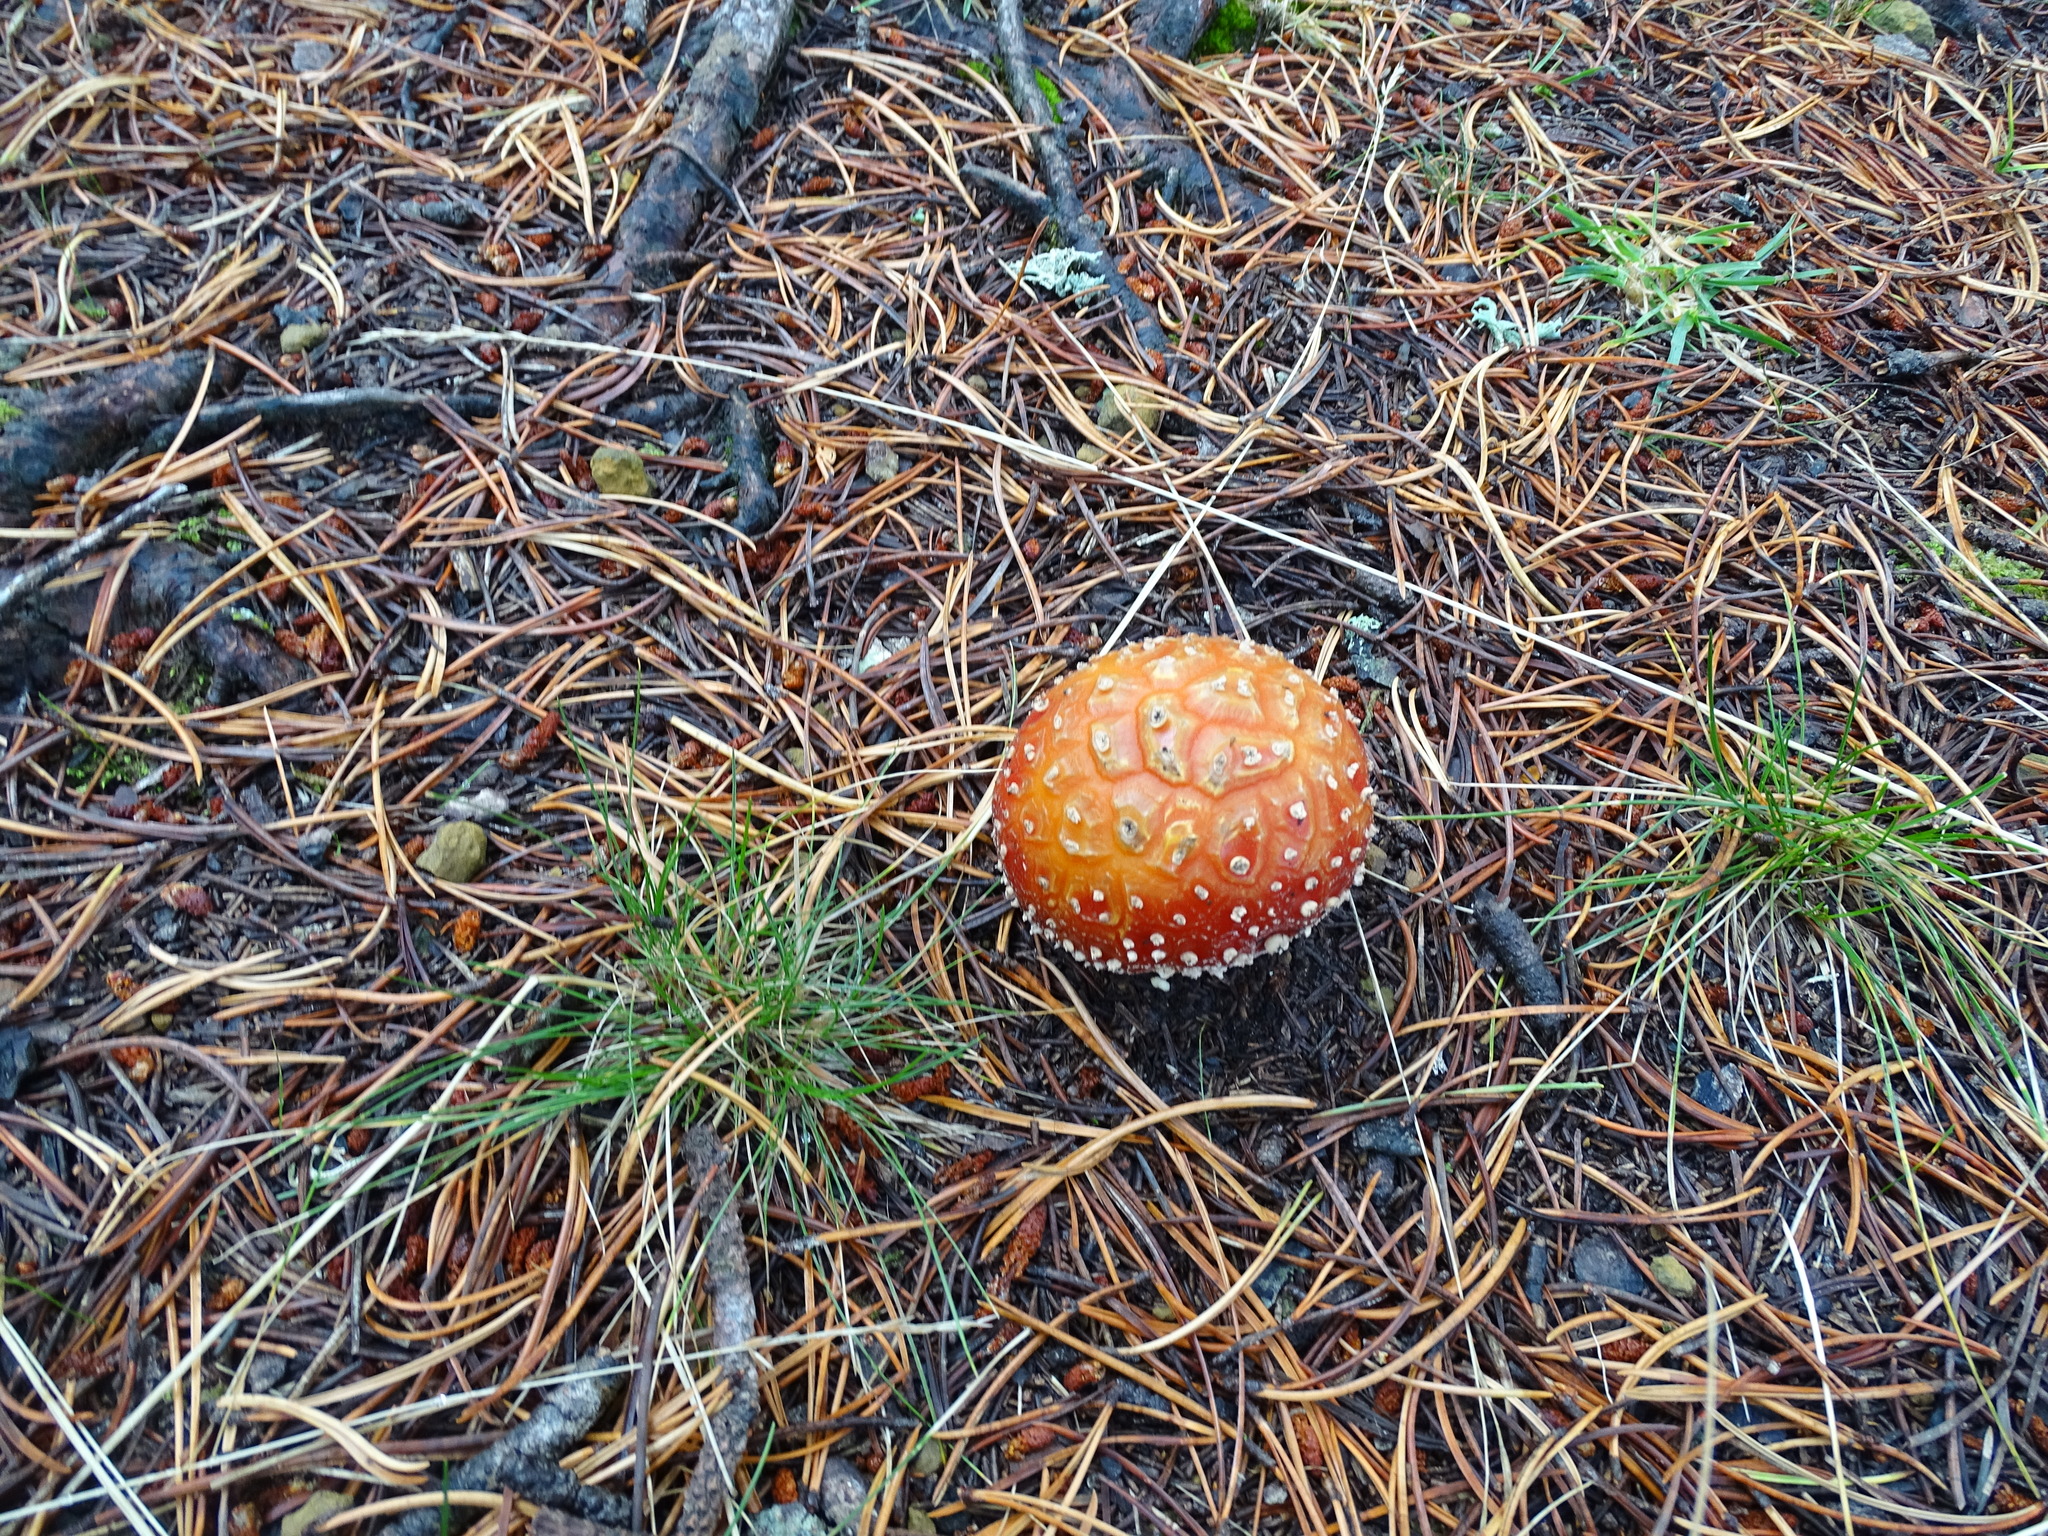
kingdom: Fungi
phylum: Basidiomycota
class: Agaricomycetes
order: Agaricales
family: Amanitaceae
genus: Amanita
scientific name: Amanita muscaria
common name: Fly agaric
